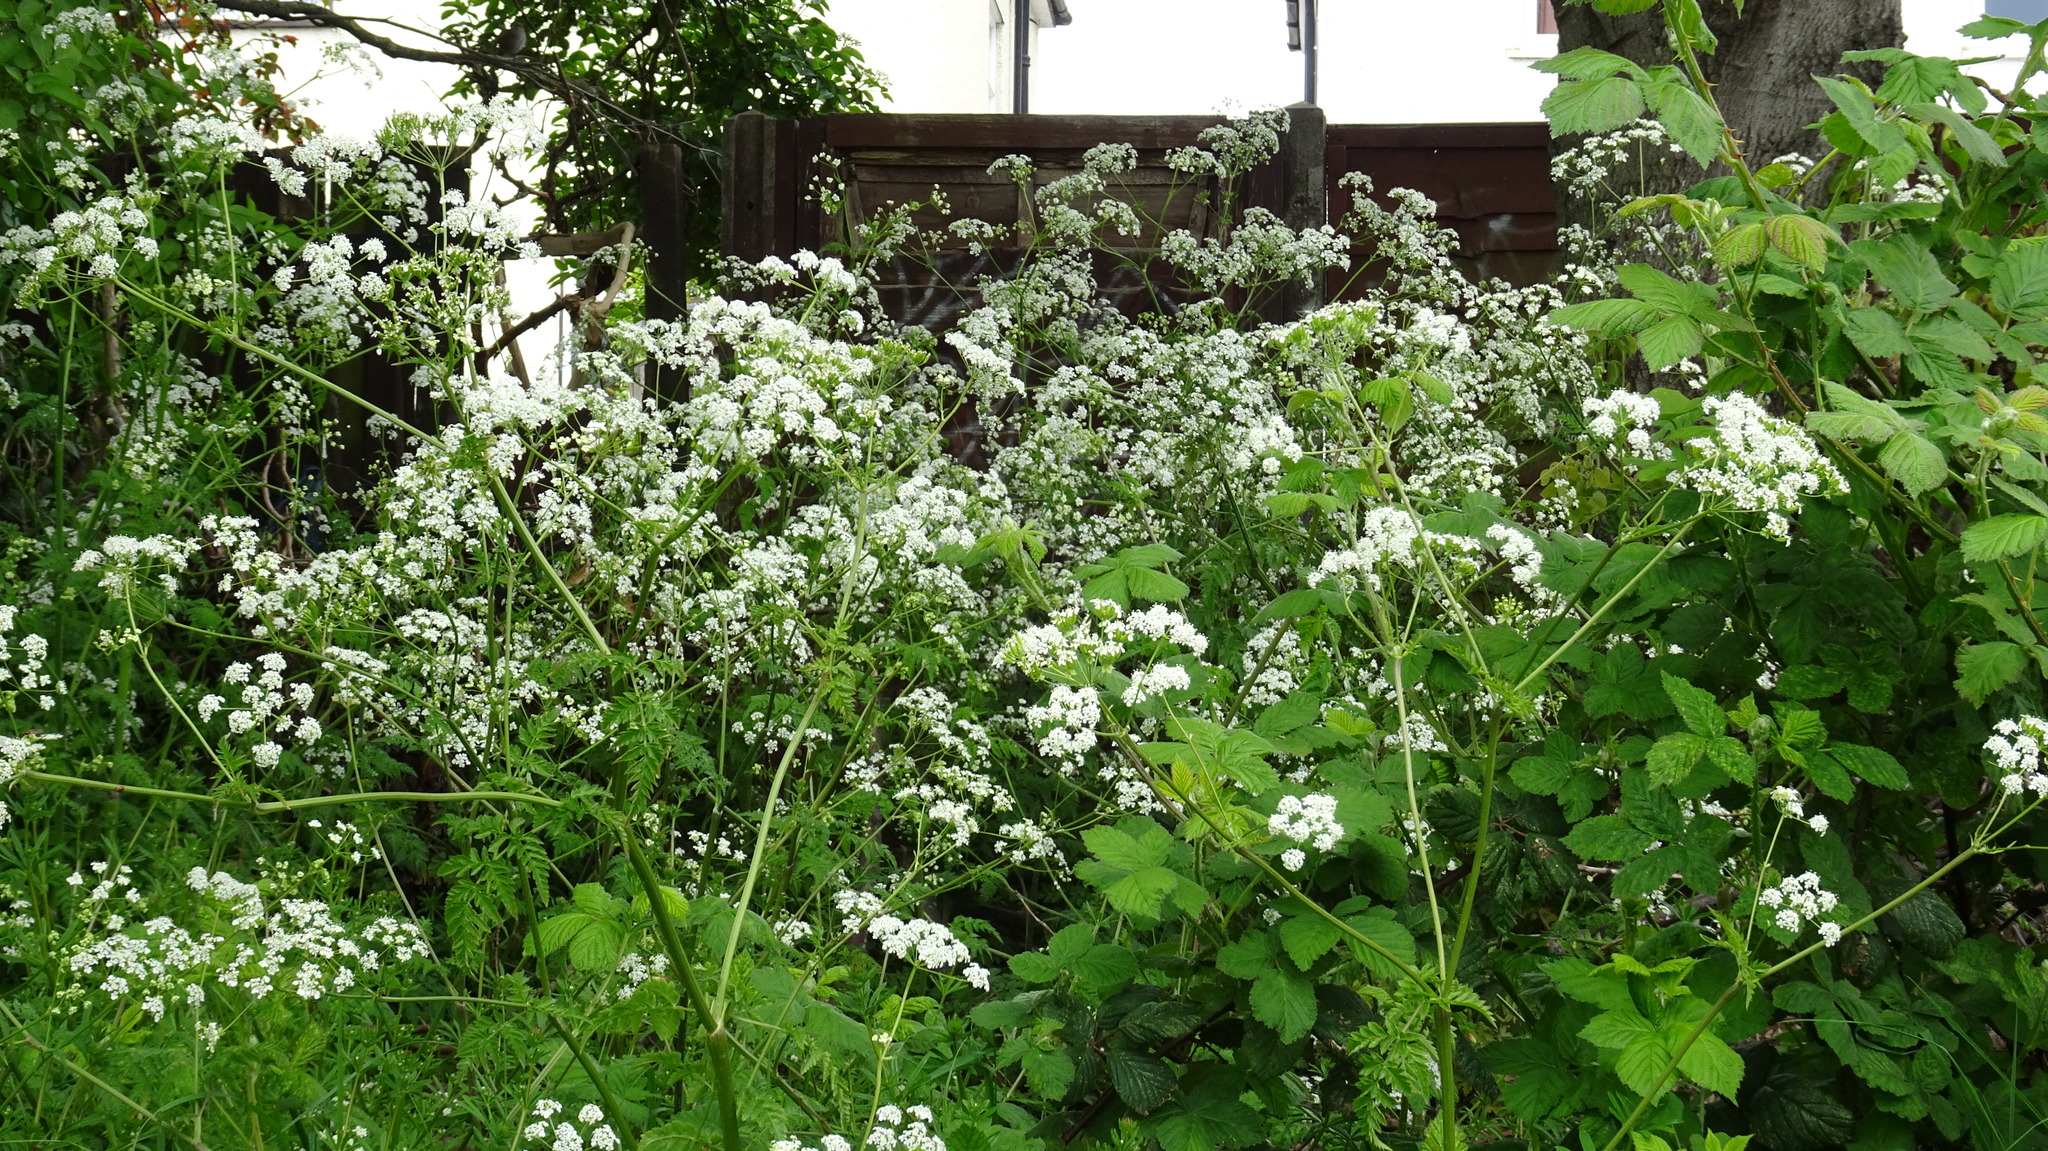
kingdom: Plantae
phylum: Tracheophyta
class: Magnoliopsida
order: Apiales
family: Apiaceae
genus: Anthriscus
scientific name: Anthriscus sylvestris
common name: Cow parsley
